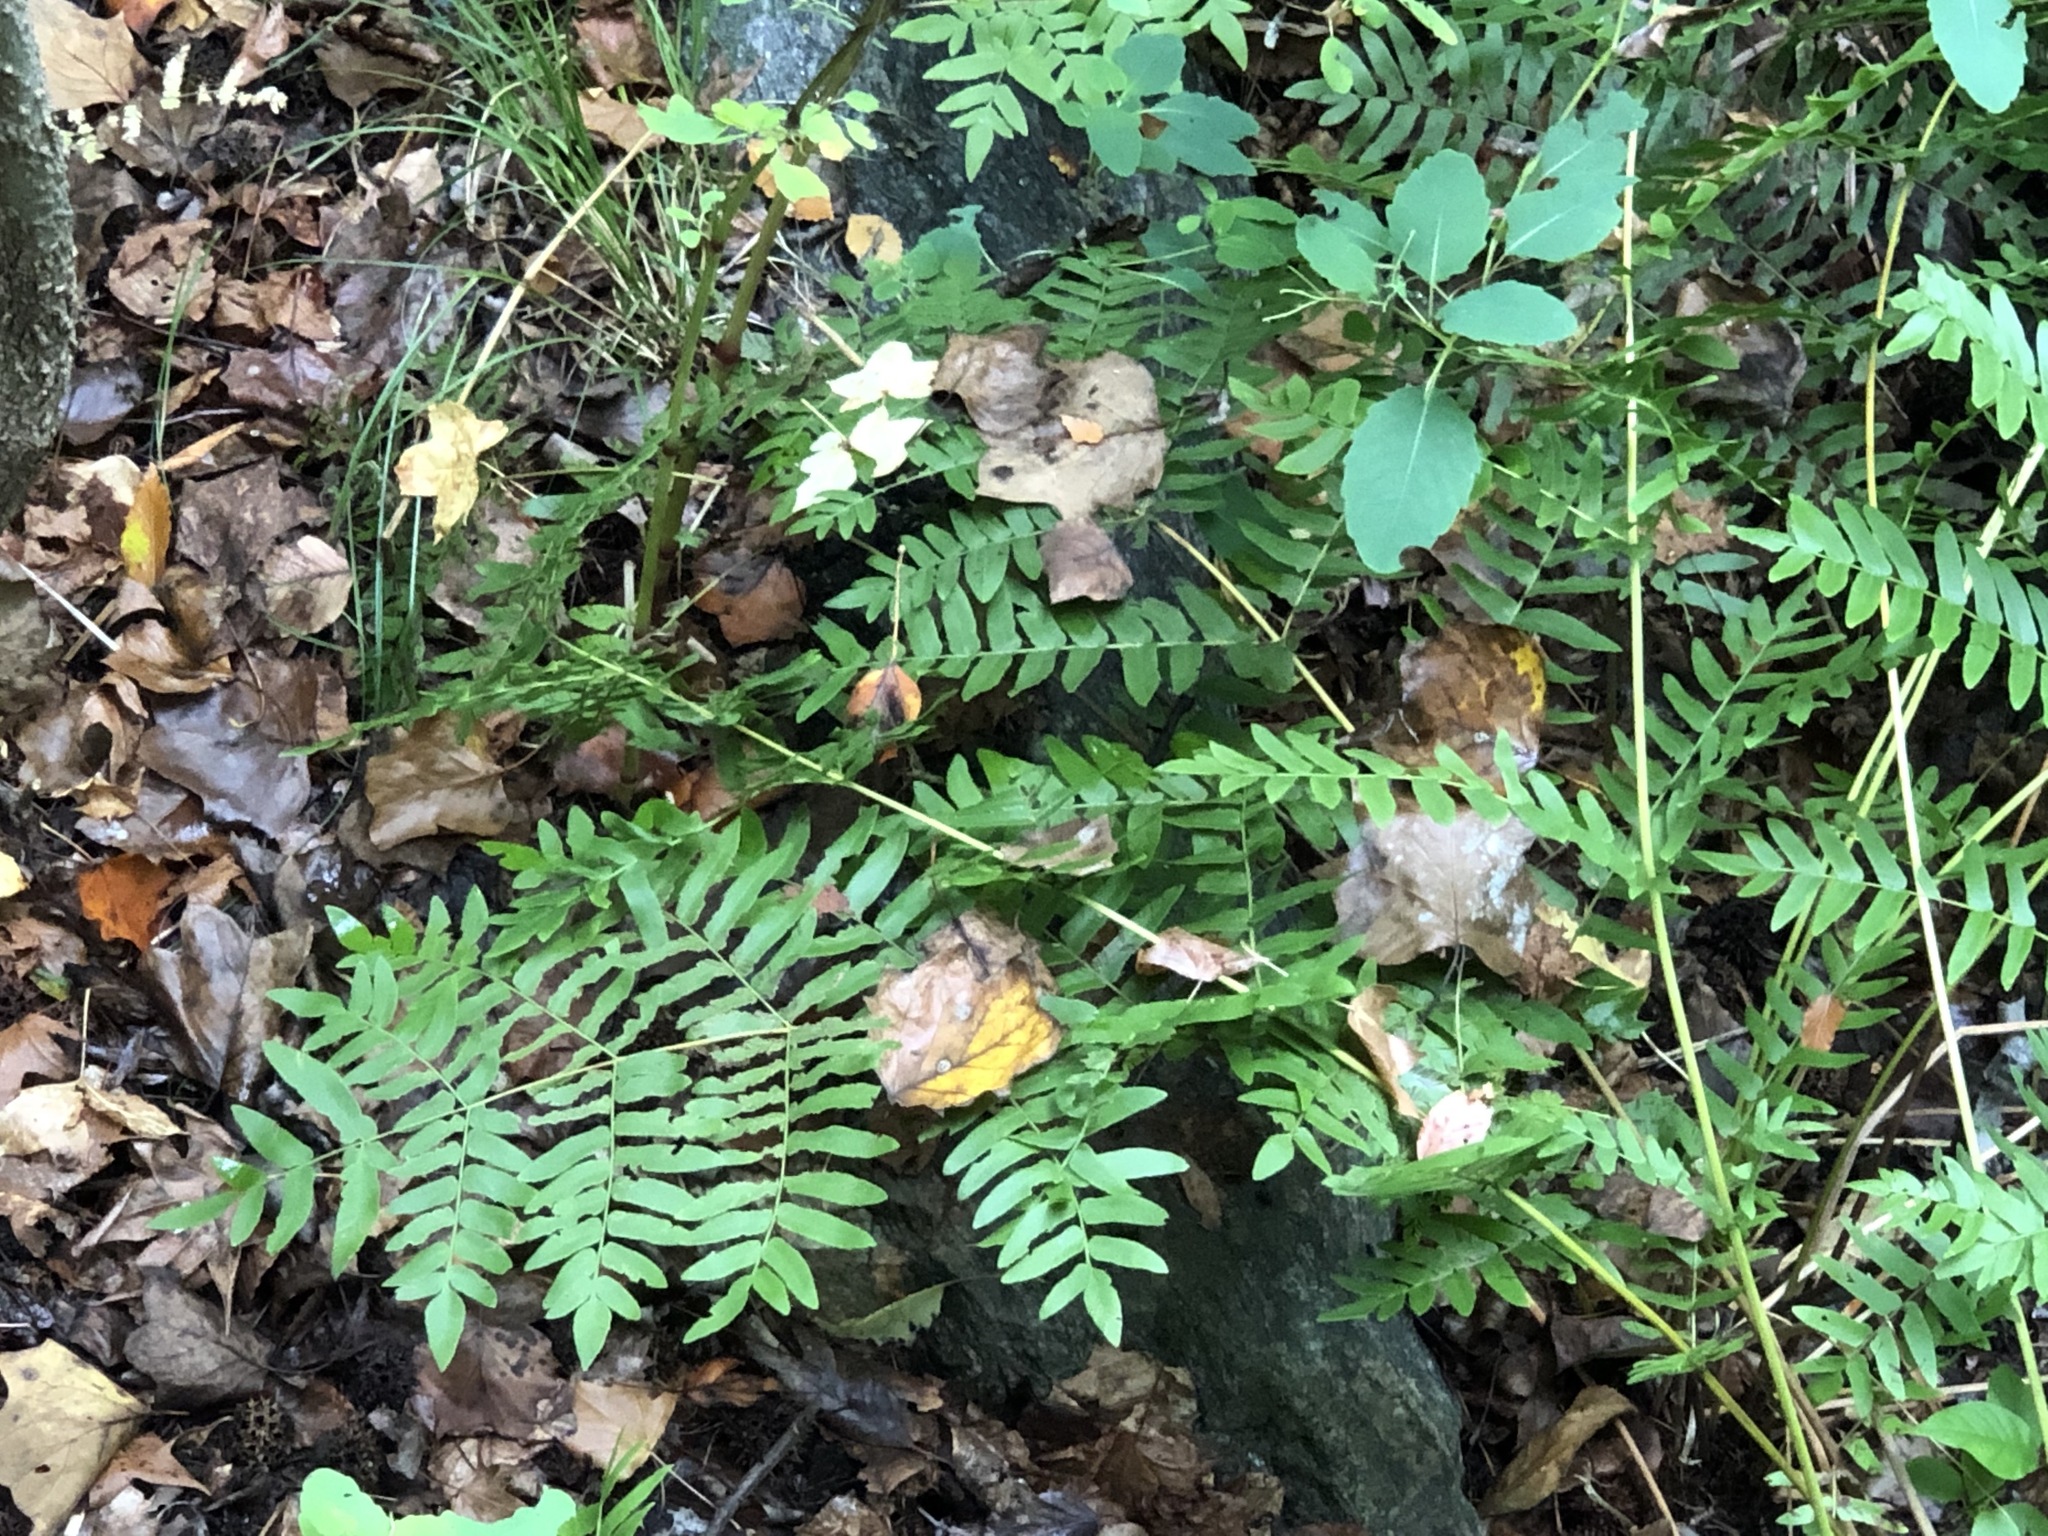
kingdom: Plantae
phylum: Tracheophyta
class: Polypodiopsida
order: Osmundales
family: Osmundaceae
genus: Osmunda
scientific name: Osmunda spectabilis
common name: American royal fern
